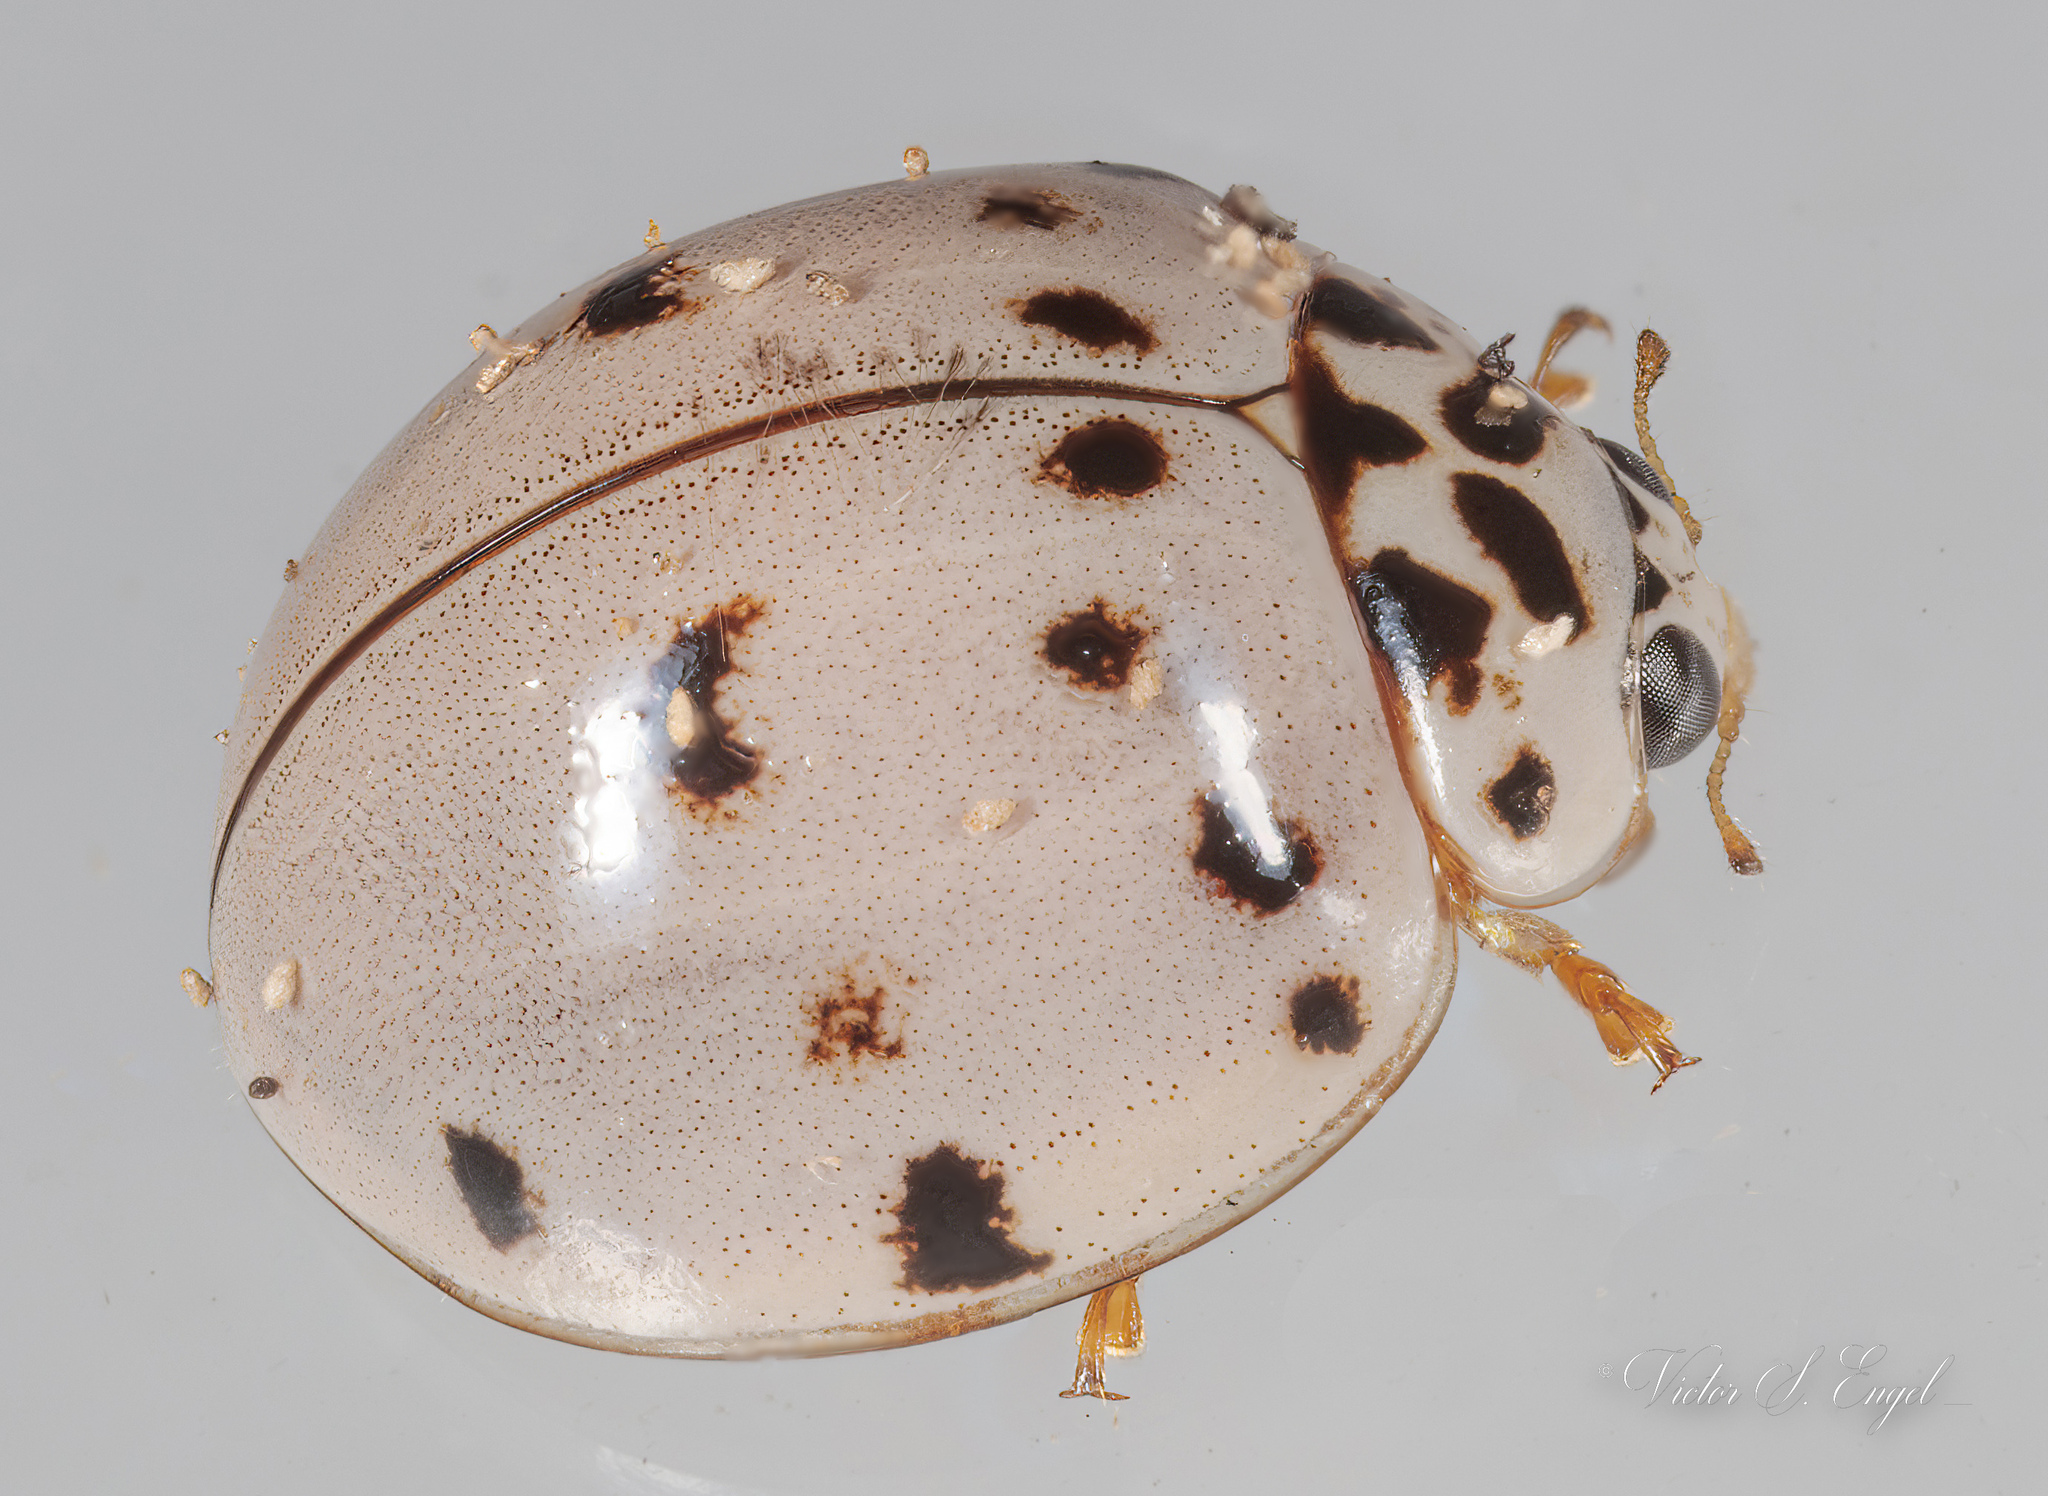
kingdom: Animalia
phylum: Arthropoda
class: Insecta
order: Coleoptera
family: Coccinellidae
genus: Olla
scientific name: Olla v-nigrum
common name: Ashy gray lady beetle
